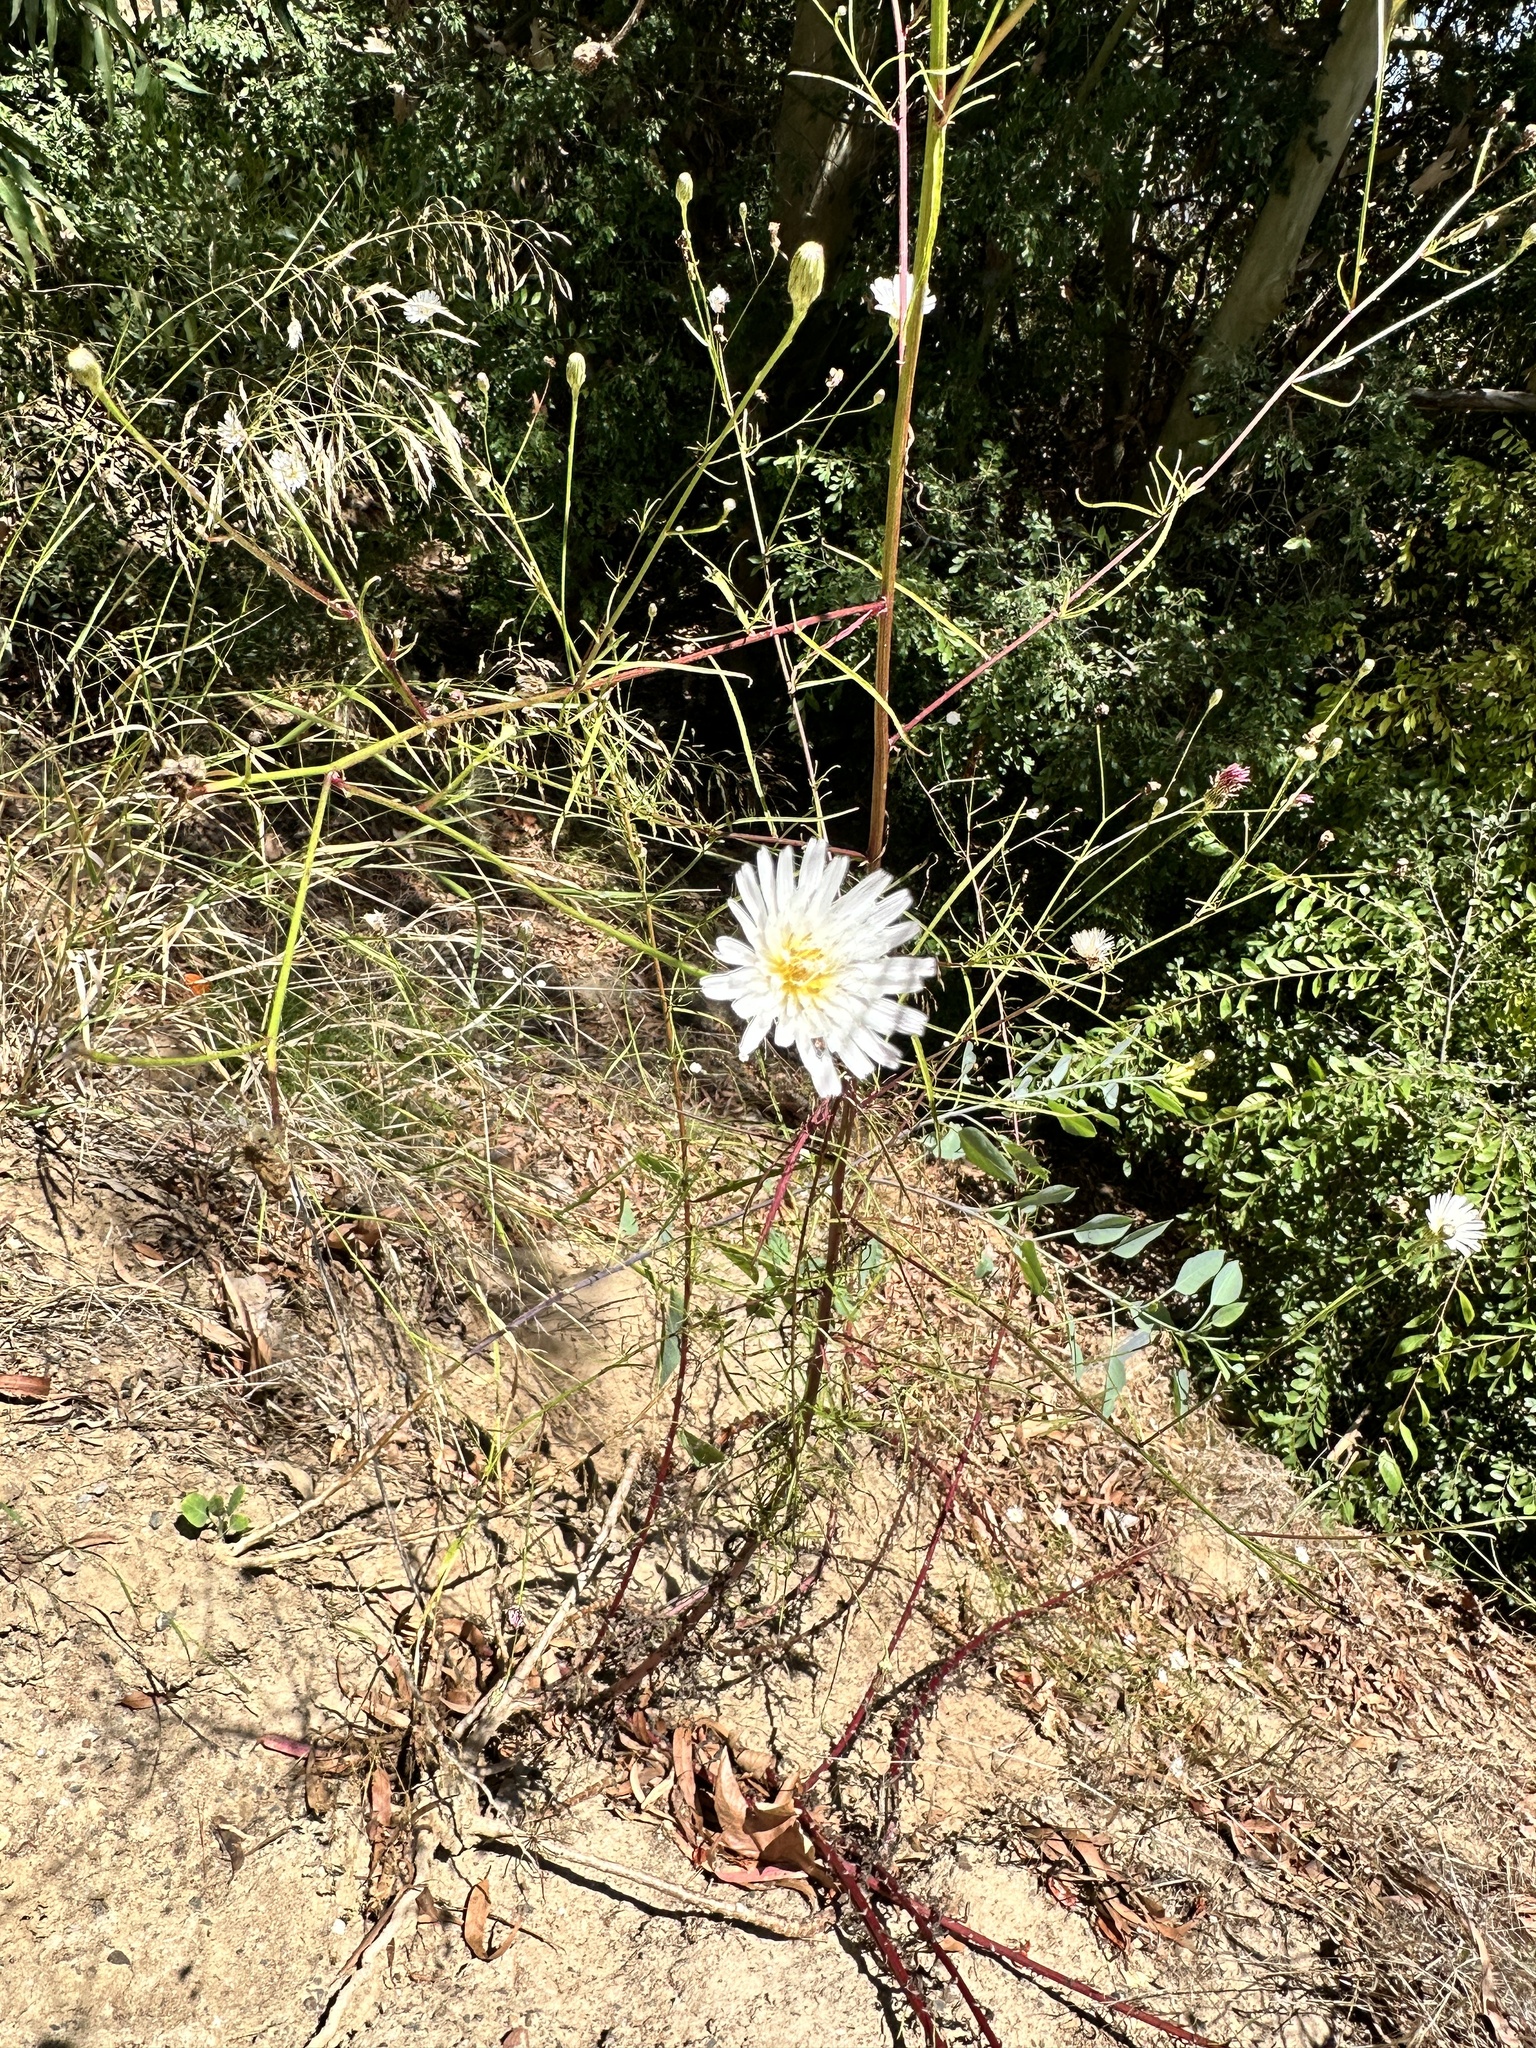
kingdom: Plantae
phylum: Tracheophyta
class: Magnoliopsida
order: Asterales
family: Asteraceae
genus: Malacothrix
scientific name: Malacothrix saxatilis
